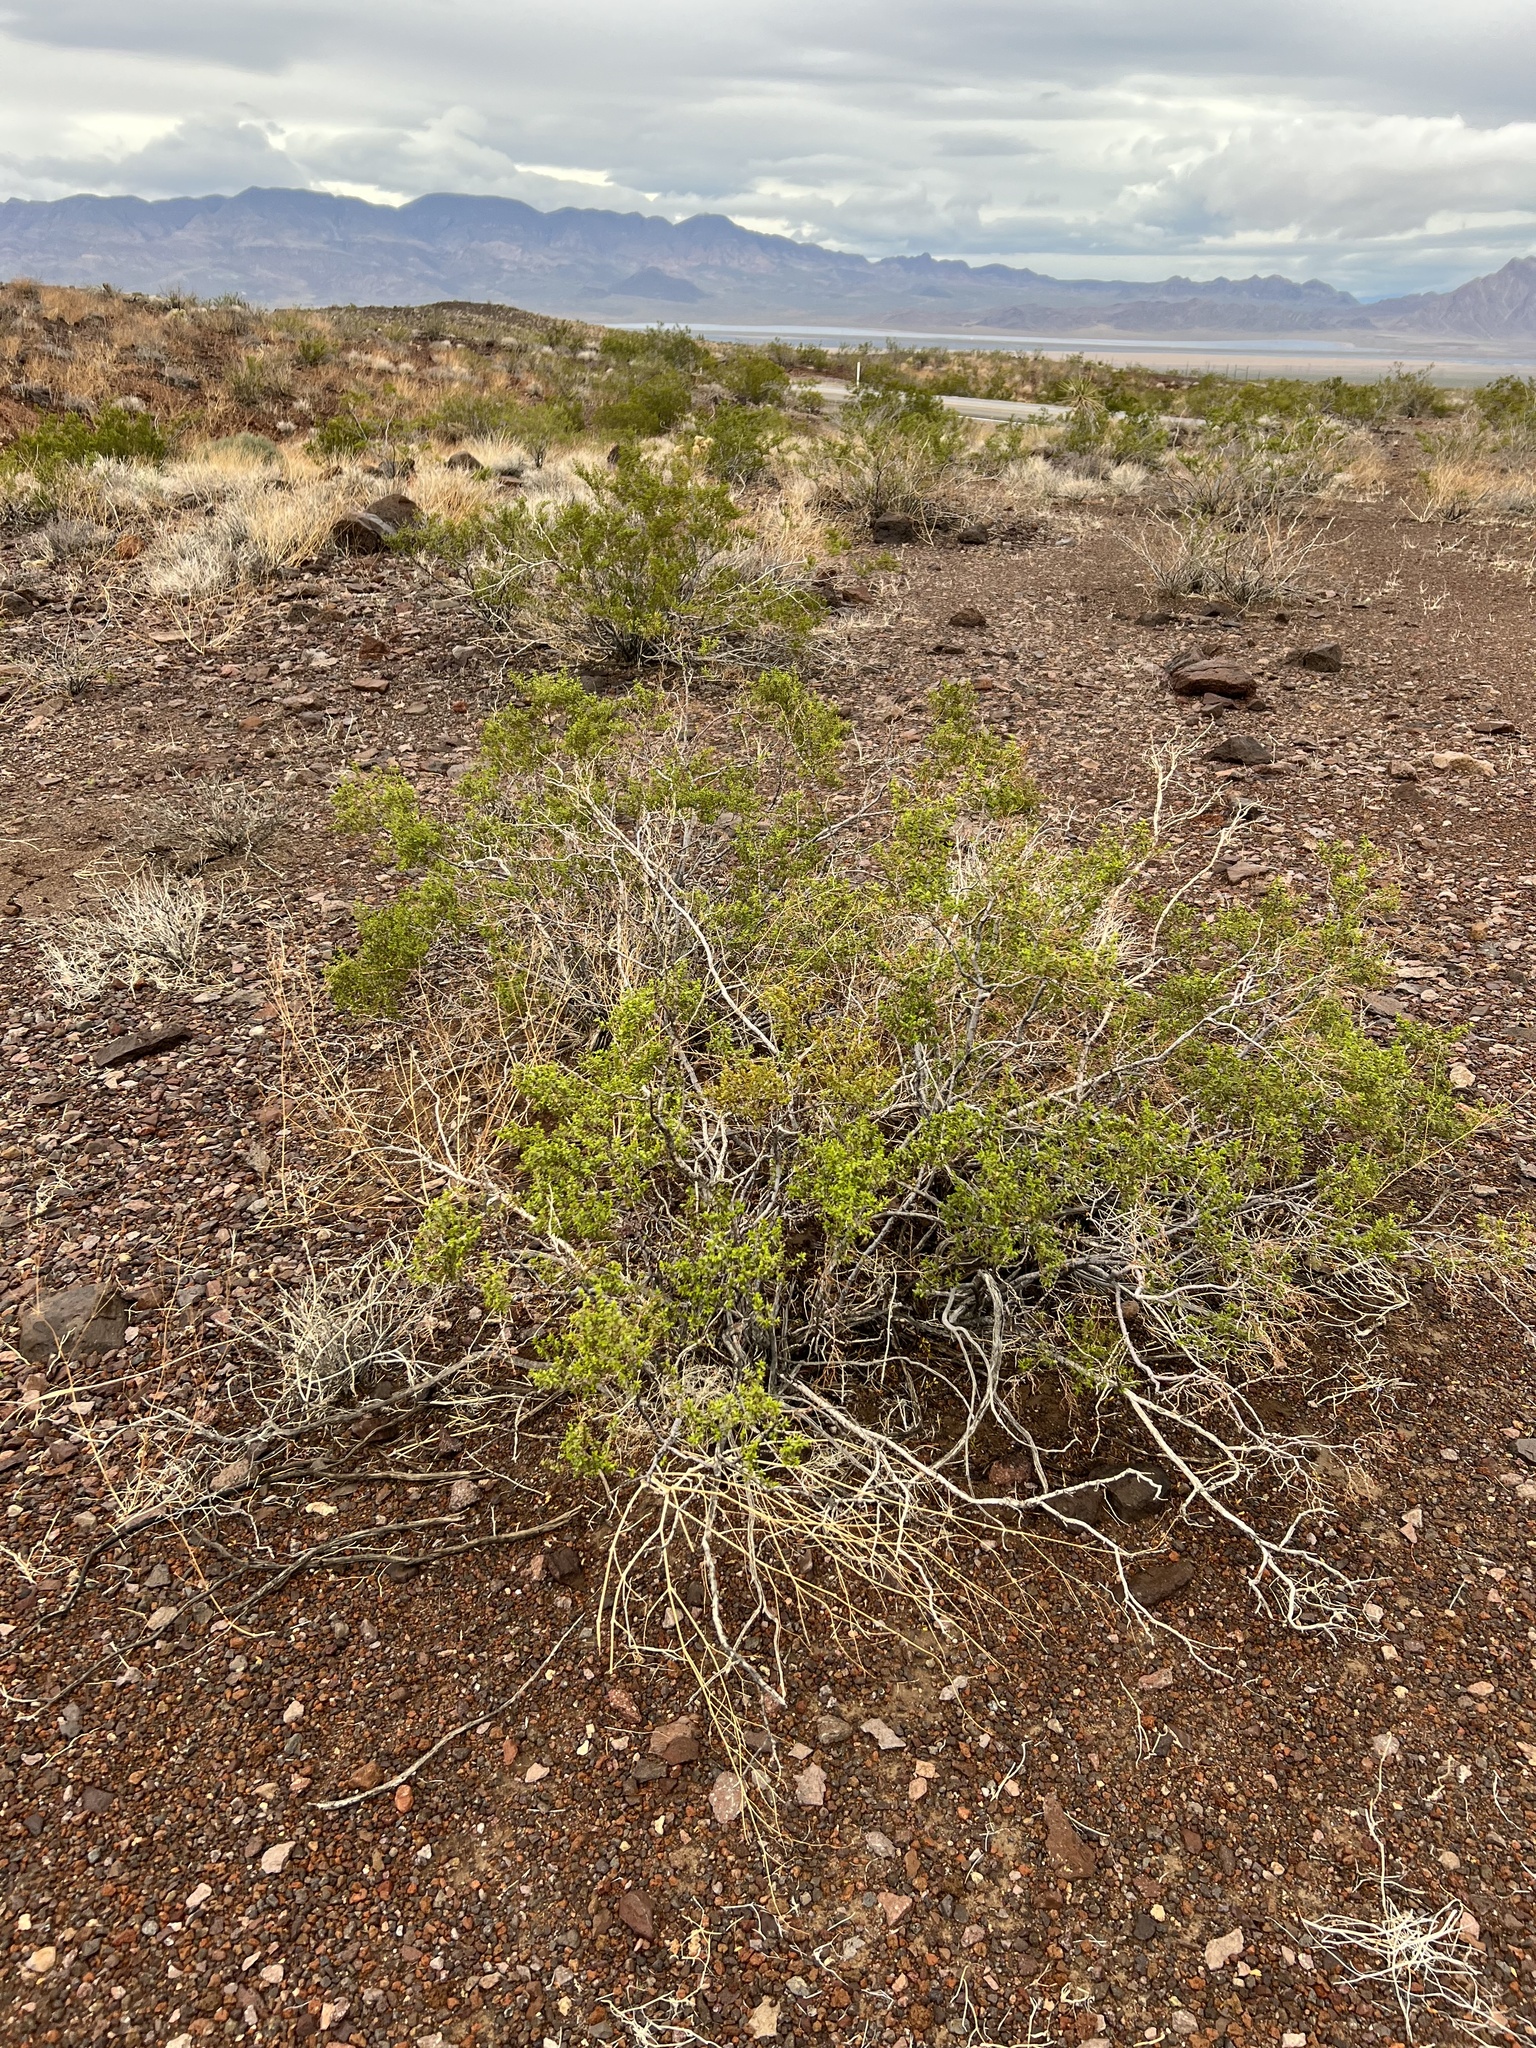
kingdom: Plantae
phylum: Tracheophyta
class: Magnoliopsida
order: Zygophyllales
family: Zygophyllaceae
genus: Larrea
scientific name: Larrea tridentata
